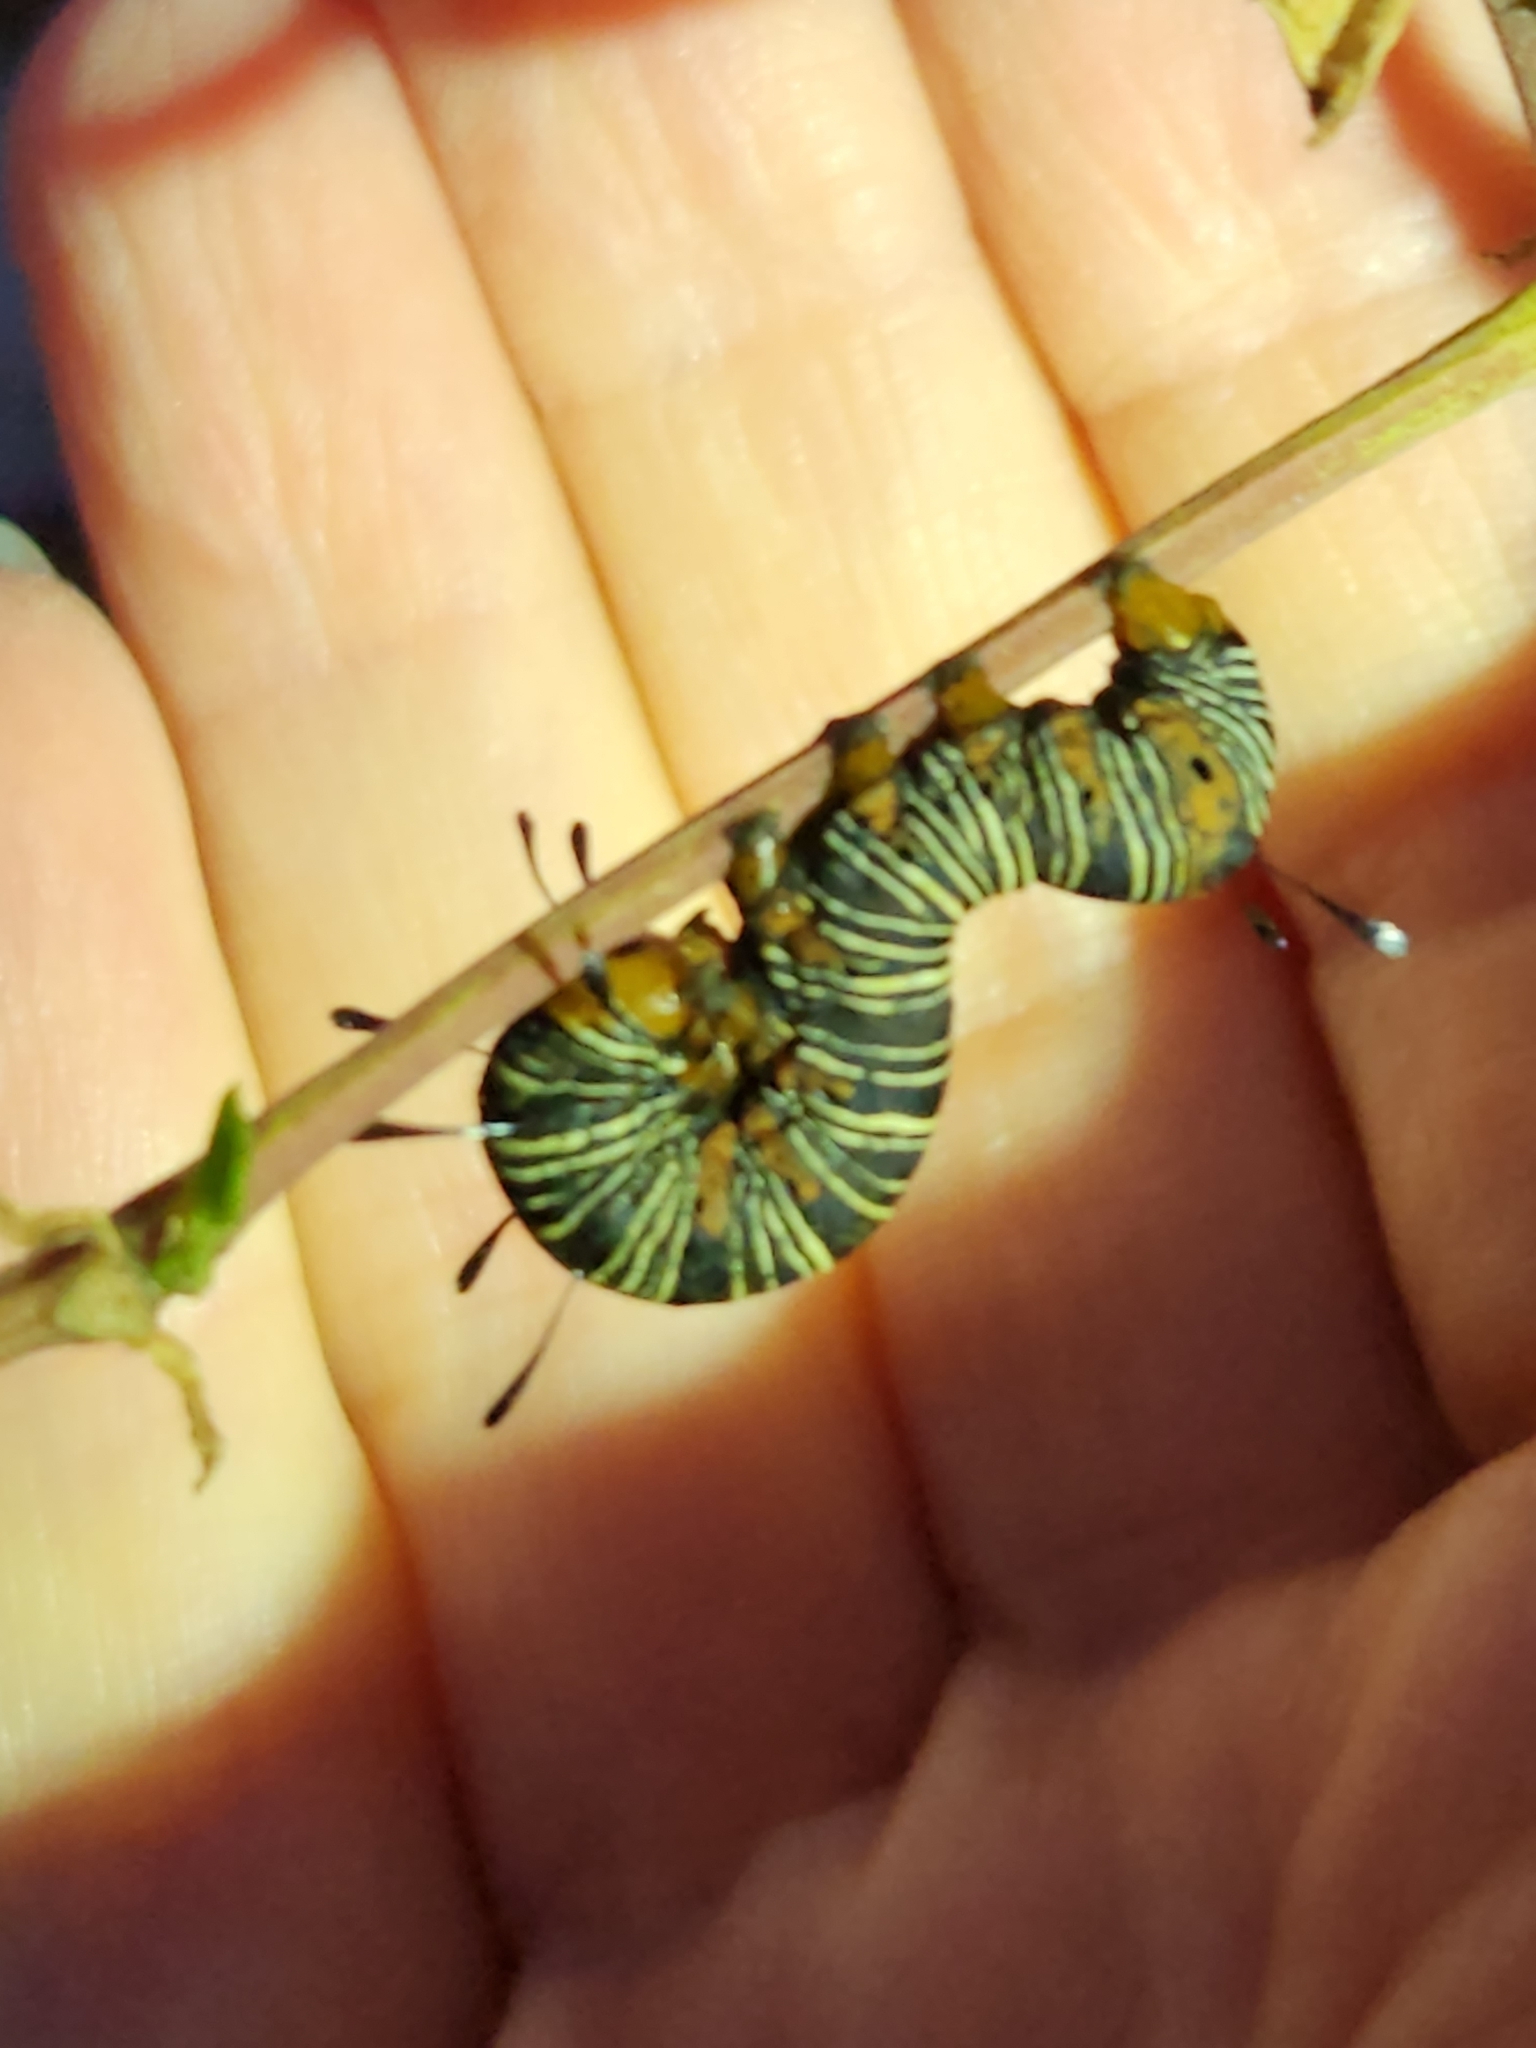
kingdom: Animalia
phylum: Arthropoda
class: Insecta
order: Lepidoptera
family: Noctuidae
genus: Xerociris
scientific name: Xerociris wilsonii
